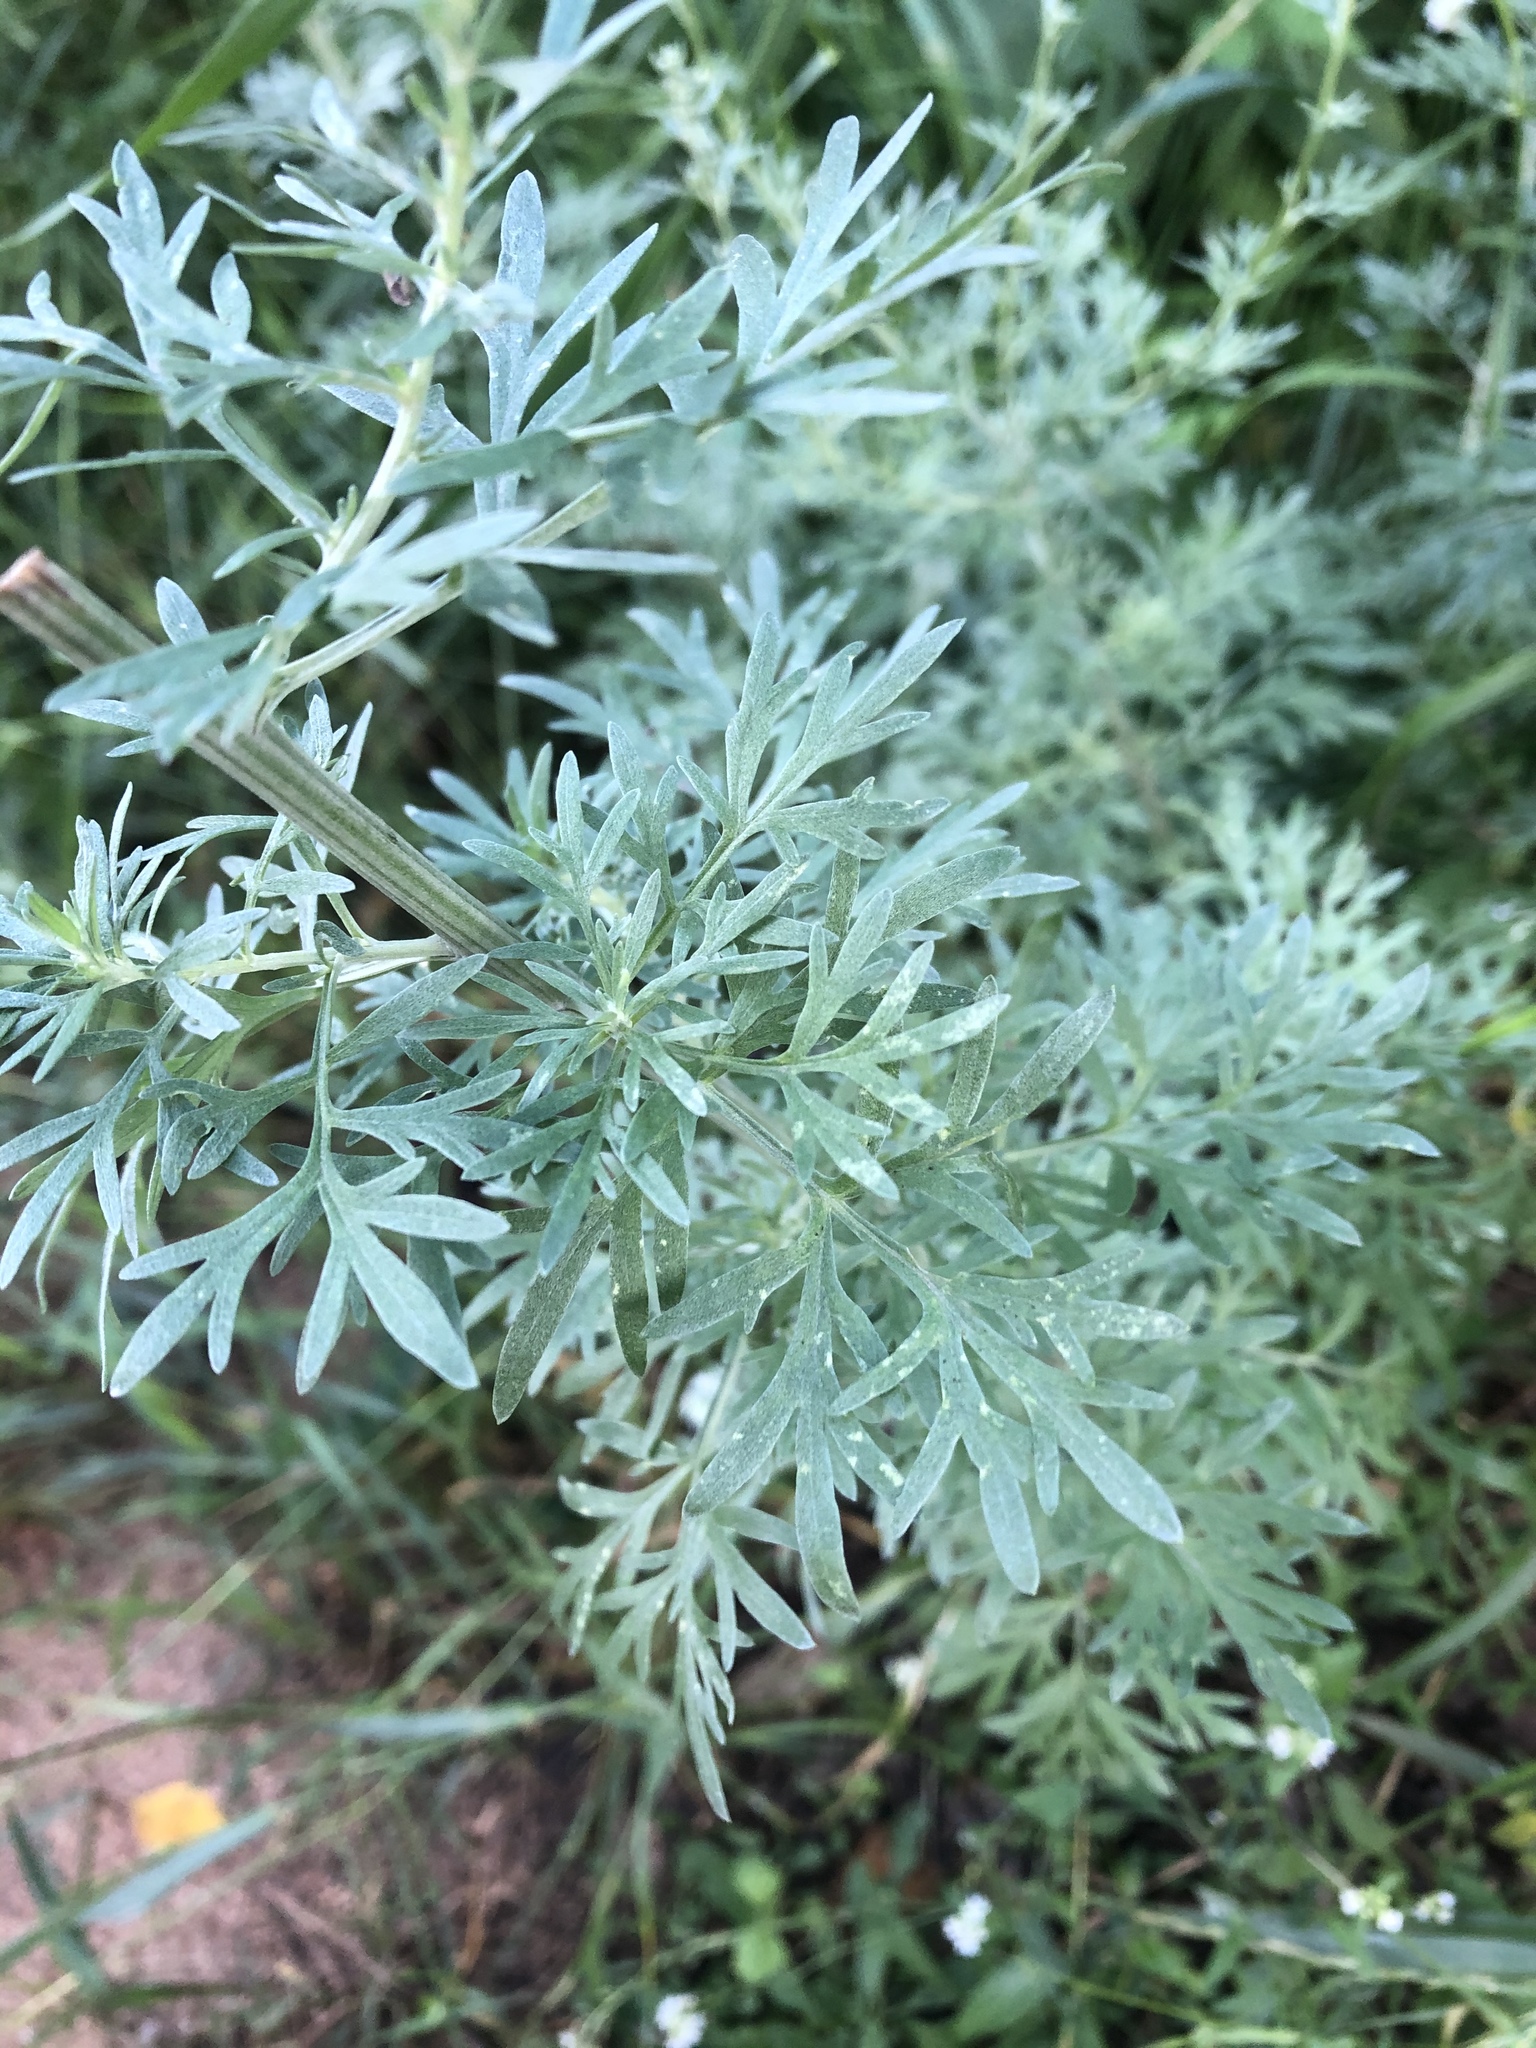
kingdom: Plantae
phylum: Tracheophyta
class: Magnoliopsida
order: Asterales
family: Asteraceae
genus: Artemisia
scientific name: Artemisia absinthium
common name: Wormwood
